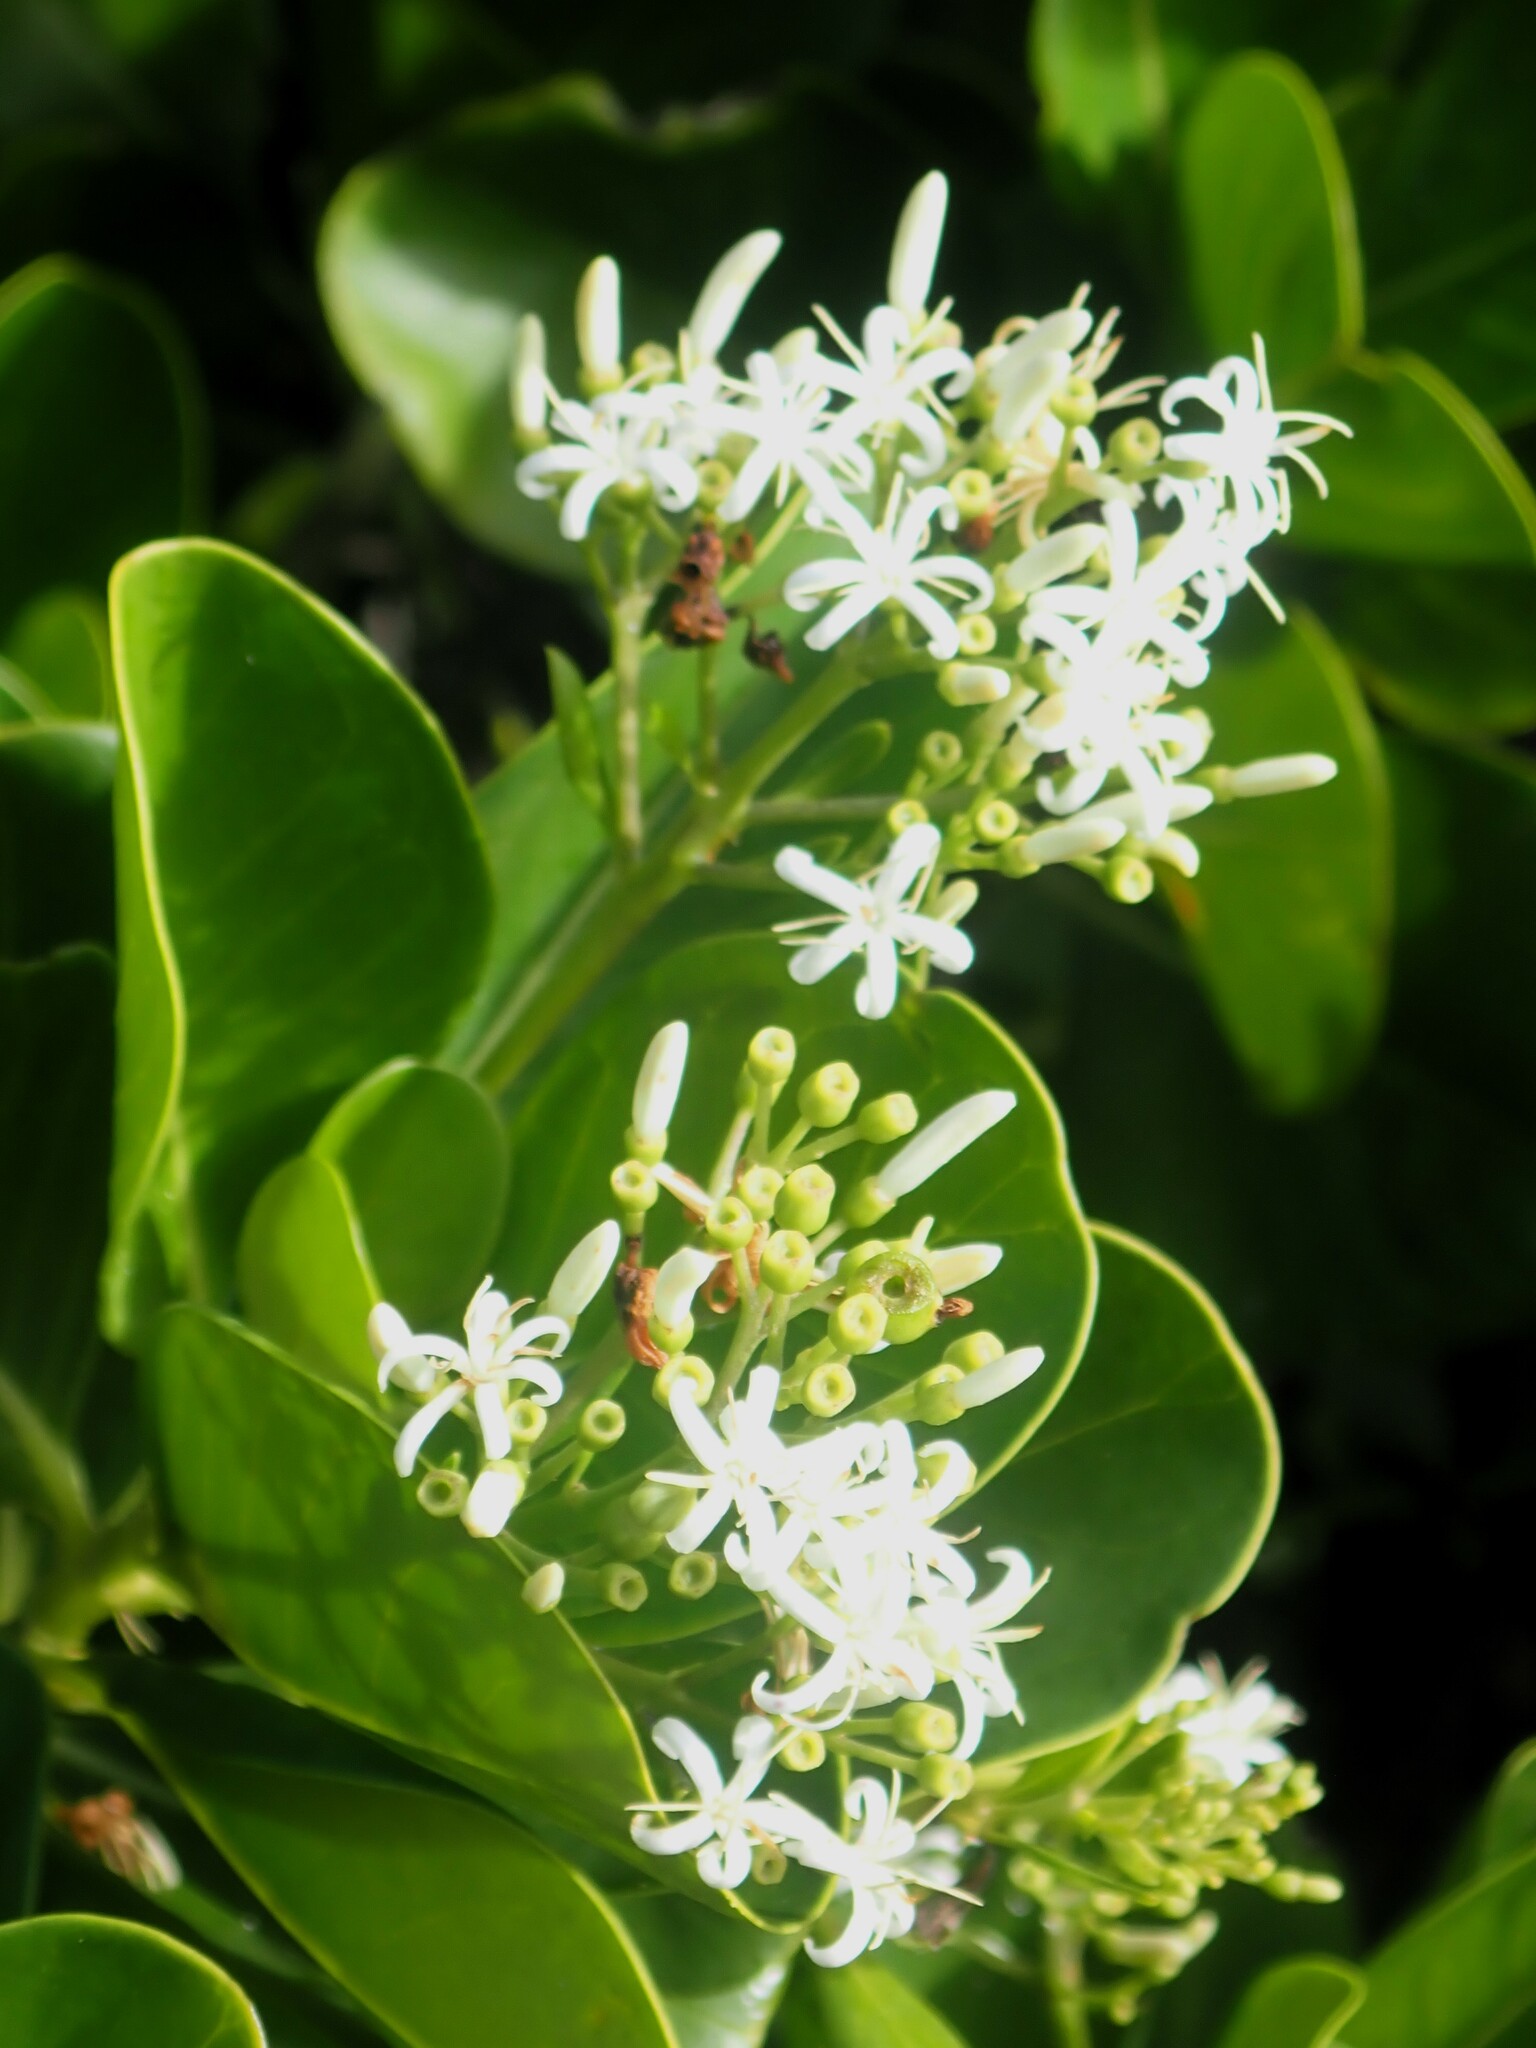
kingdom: Plantae
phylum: Tracheophyta
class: Magnoliopsida
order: Gentianales
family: Rubiaceae
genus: Erithalis
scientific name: Erithalis fruticosa
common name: Candlewood
